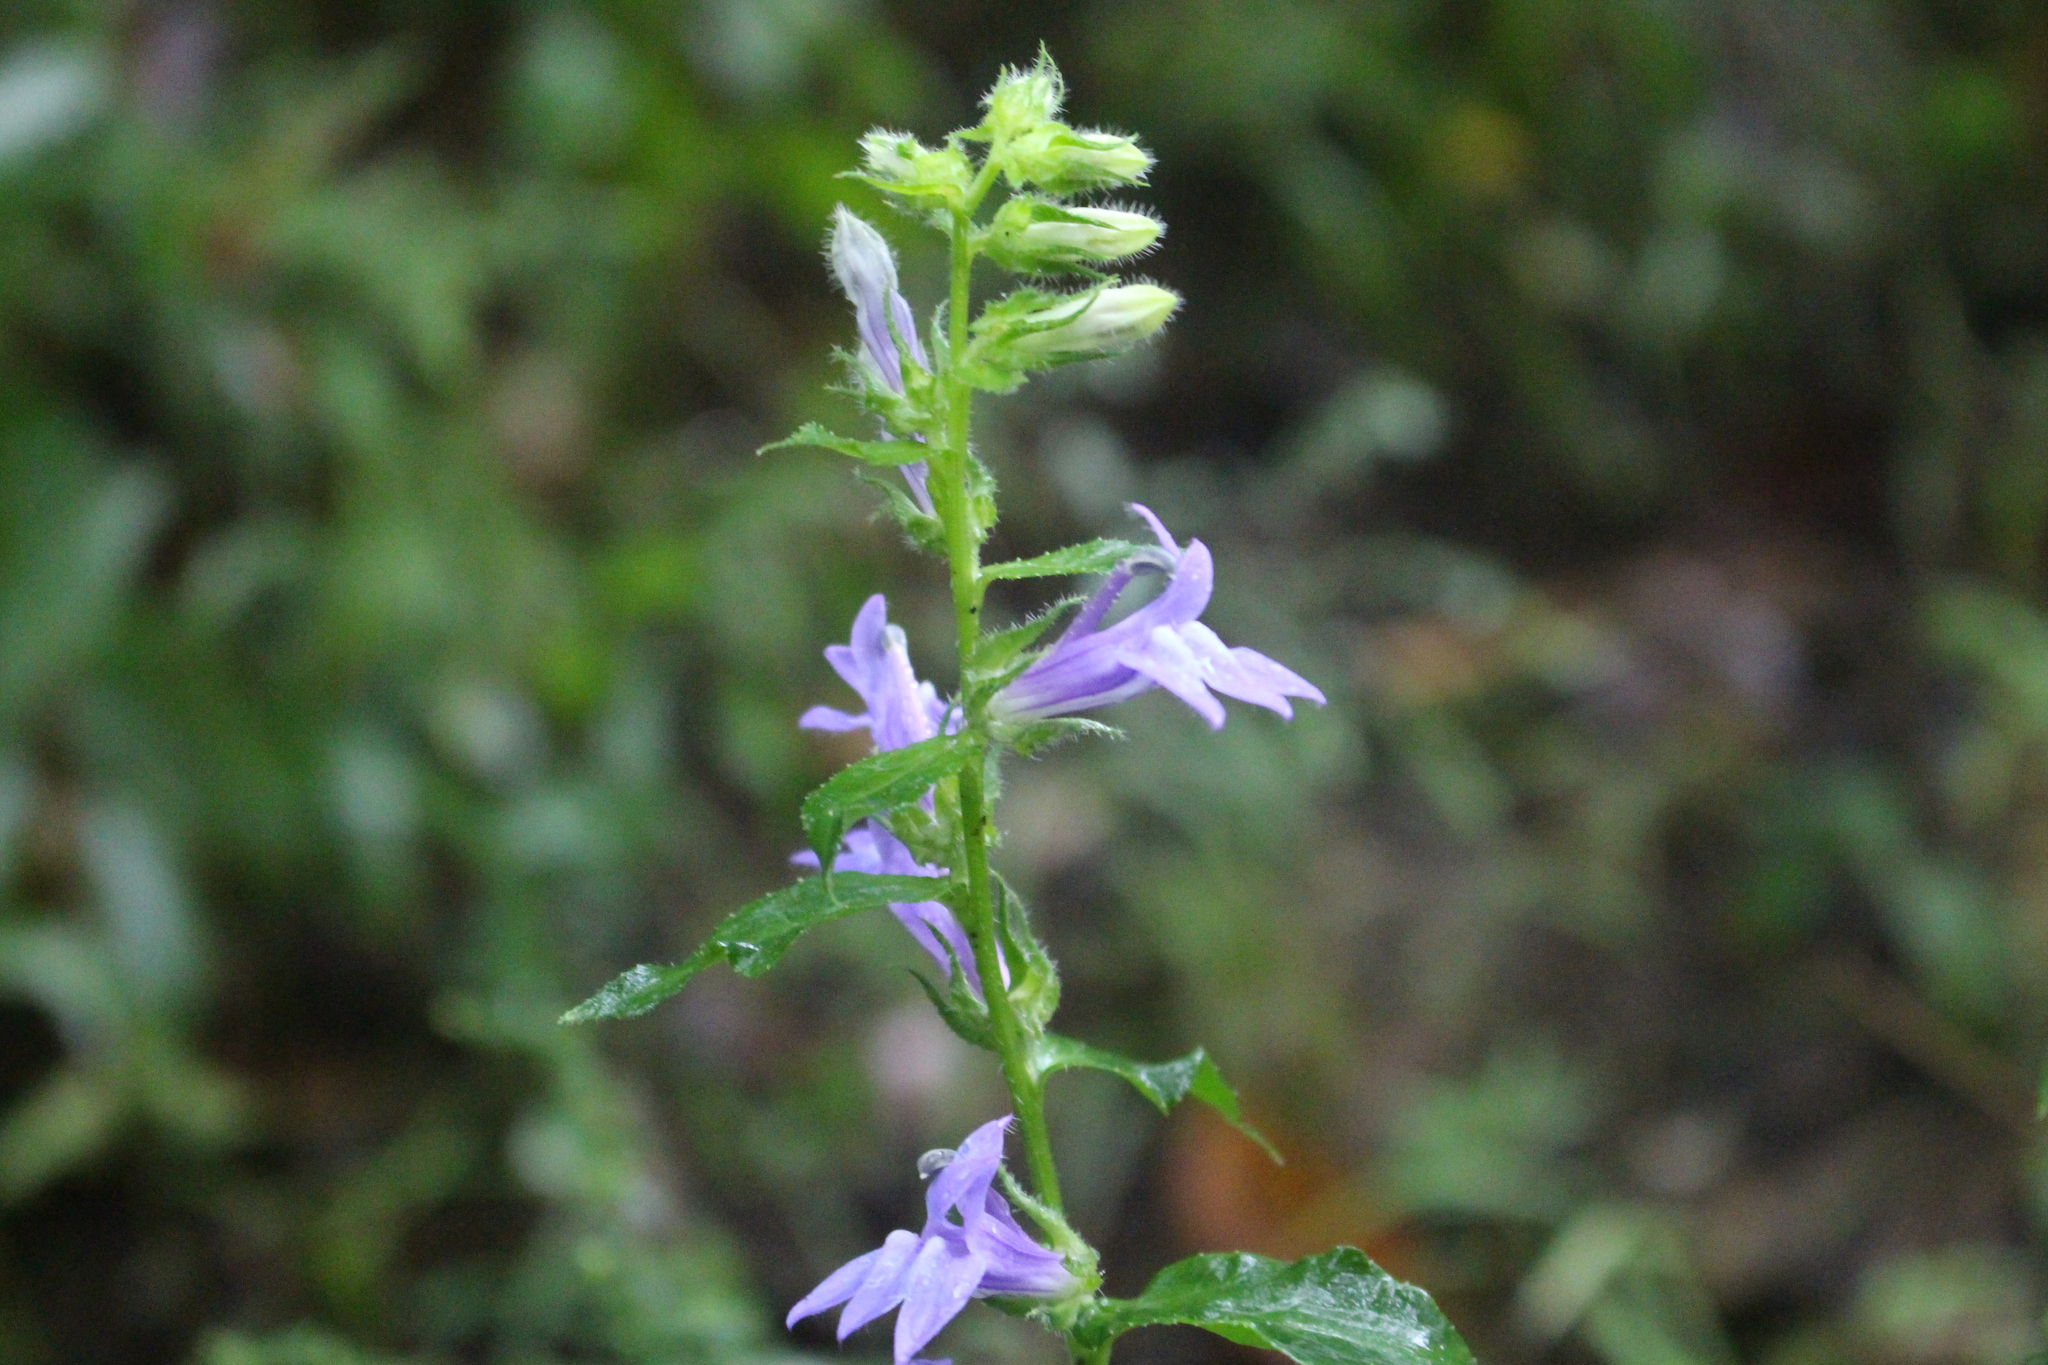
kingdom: Plantae
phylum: Tracheophyta
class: Magnoliopsida
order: Asterales
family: Campanulaceae
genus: Lobelia
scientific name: Lobelia siphilitica
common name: Great lobelia
